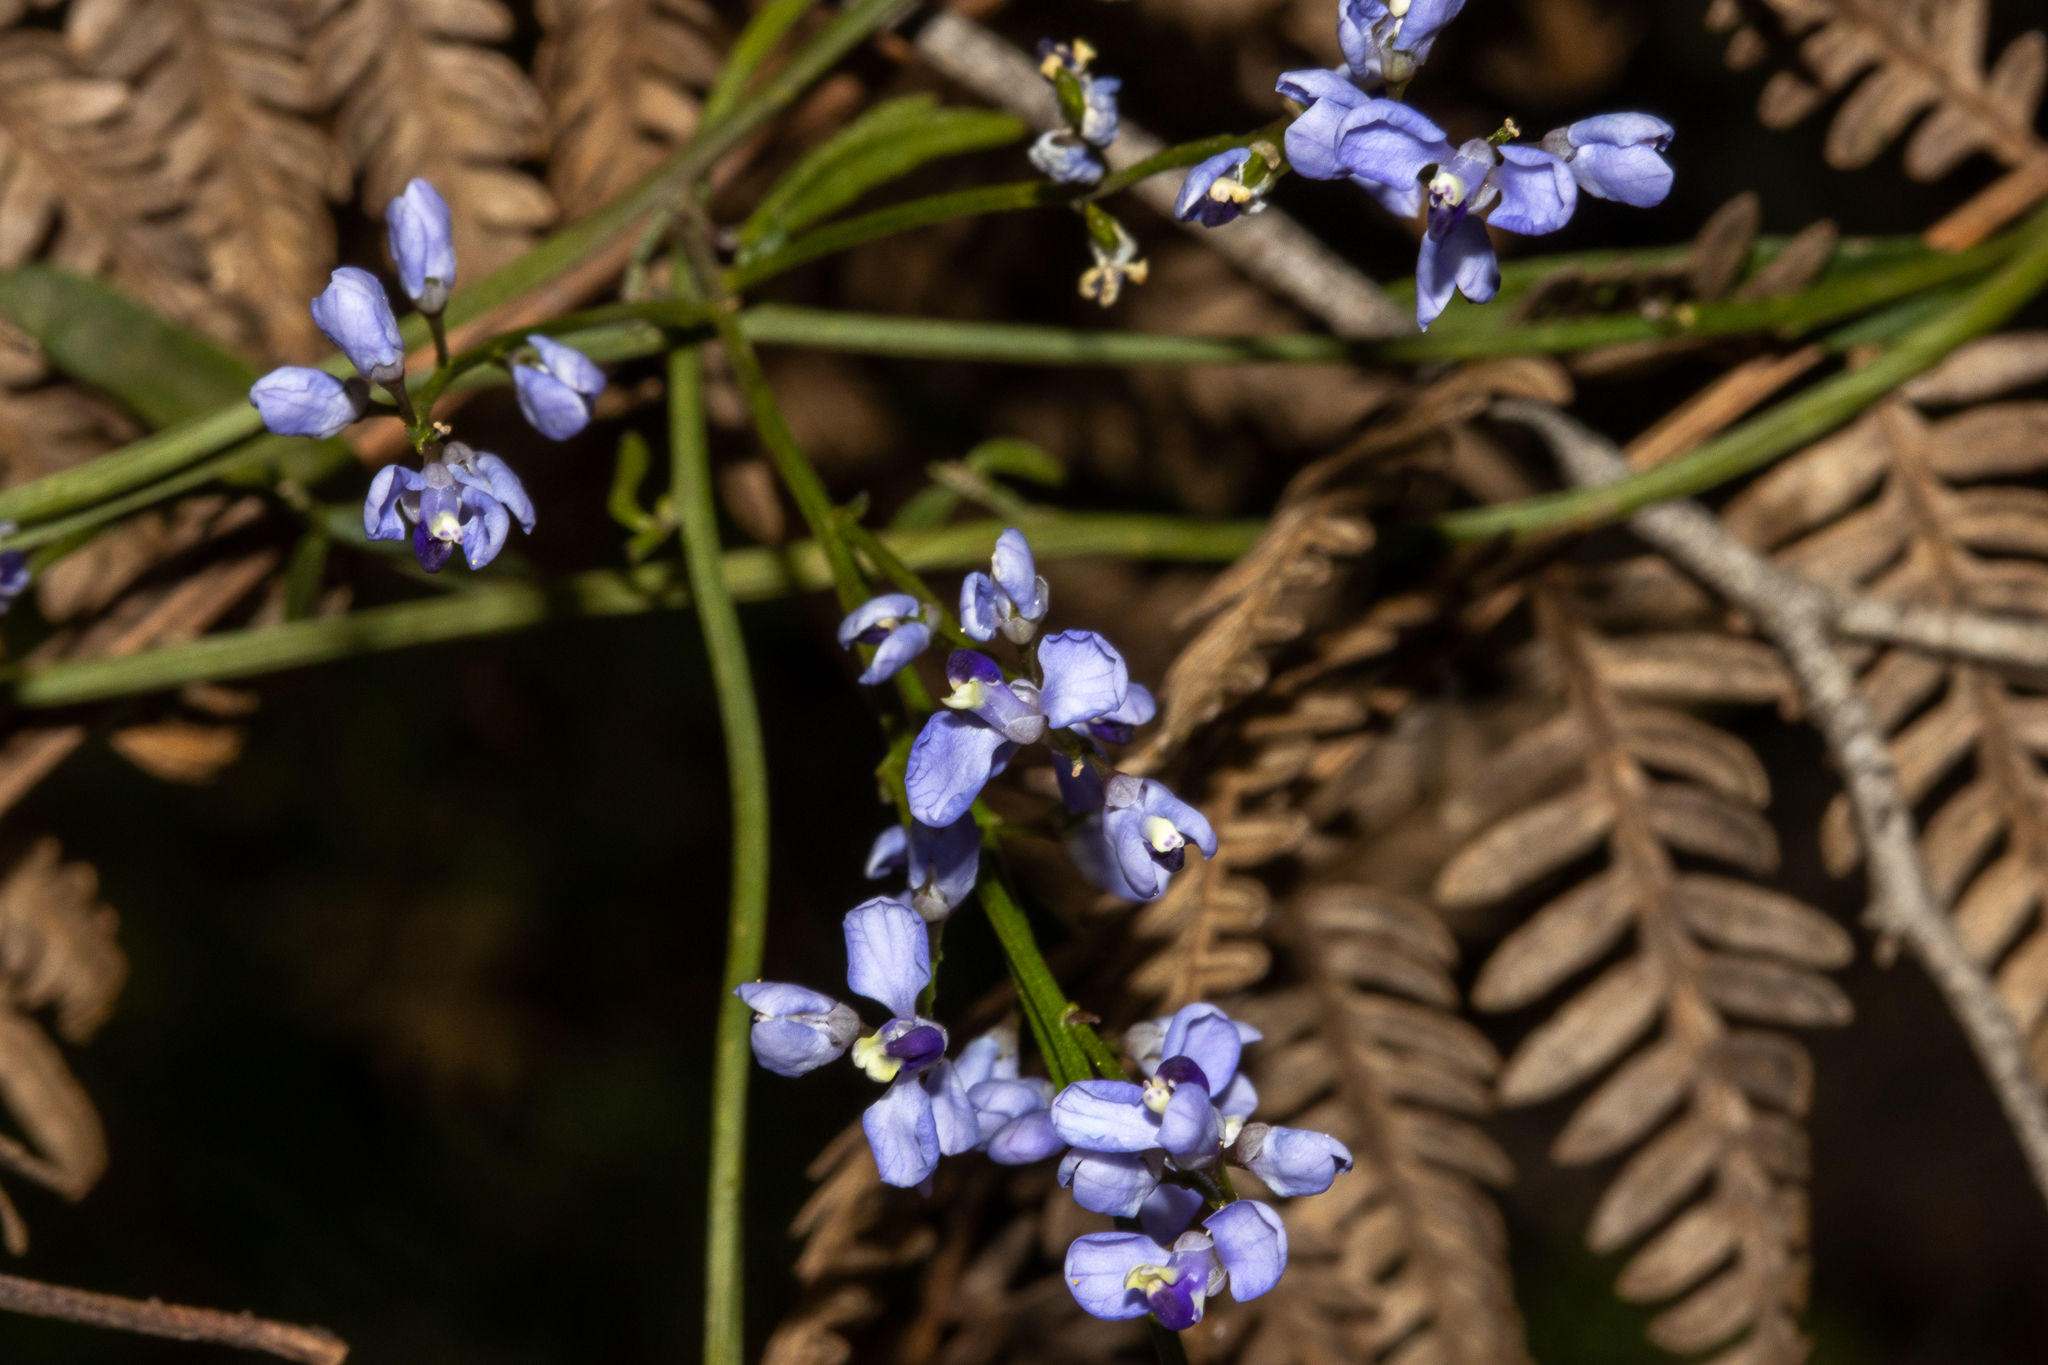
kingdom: Plantae
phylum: Tracheophyta
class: Magnoliopsida
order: Fabales
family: Polygalaceae
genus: Comesperma
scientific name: Comesperma volubile
